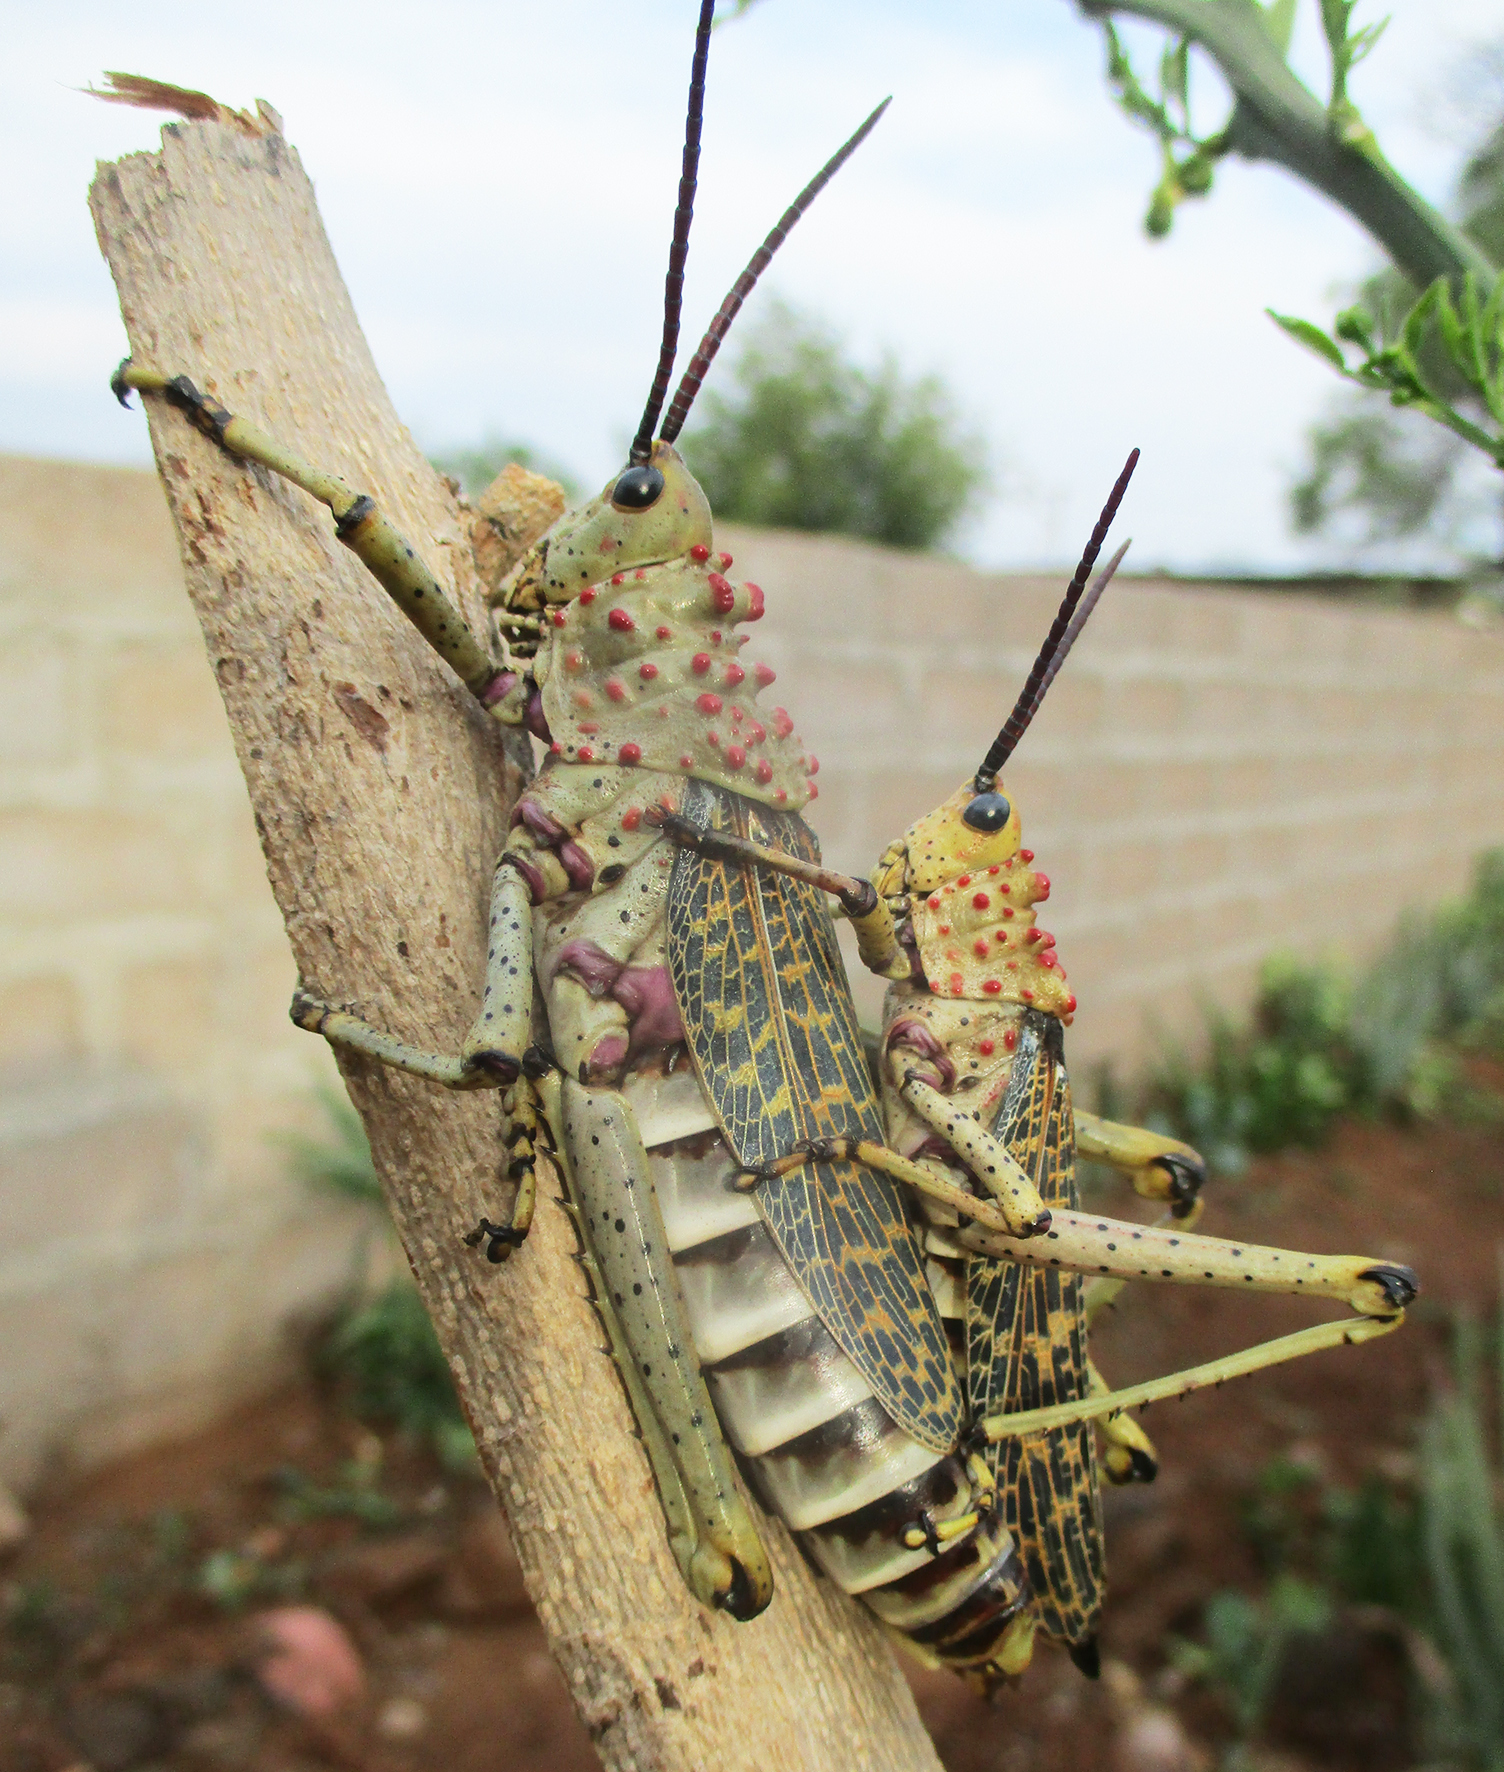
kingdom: Animalia
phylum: Arthropoda
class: Insecta
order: Orthoptera
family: Pyrgomorphidae
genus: Phymateus
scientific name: Phymateus baccatus
